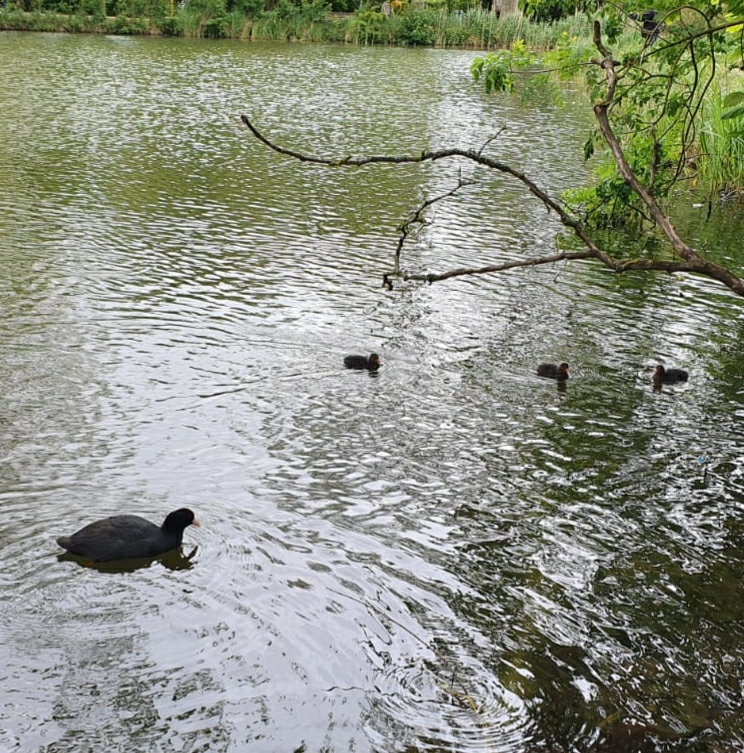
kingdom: Animalia
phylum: Chordata
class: Aves
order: Gruiformes
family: Rallidae
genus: Fulica
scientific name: Fulica atra
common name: Eurasian coot
